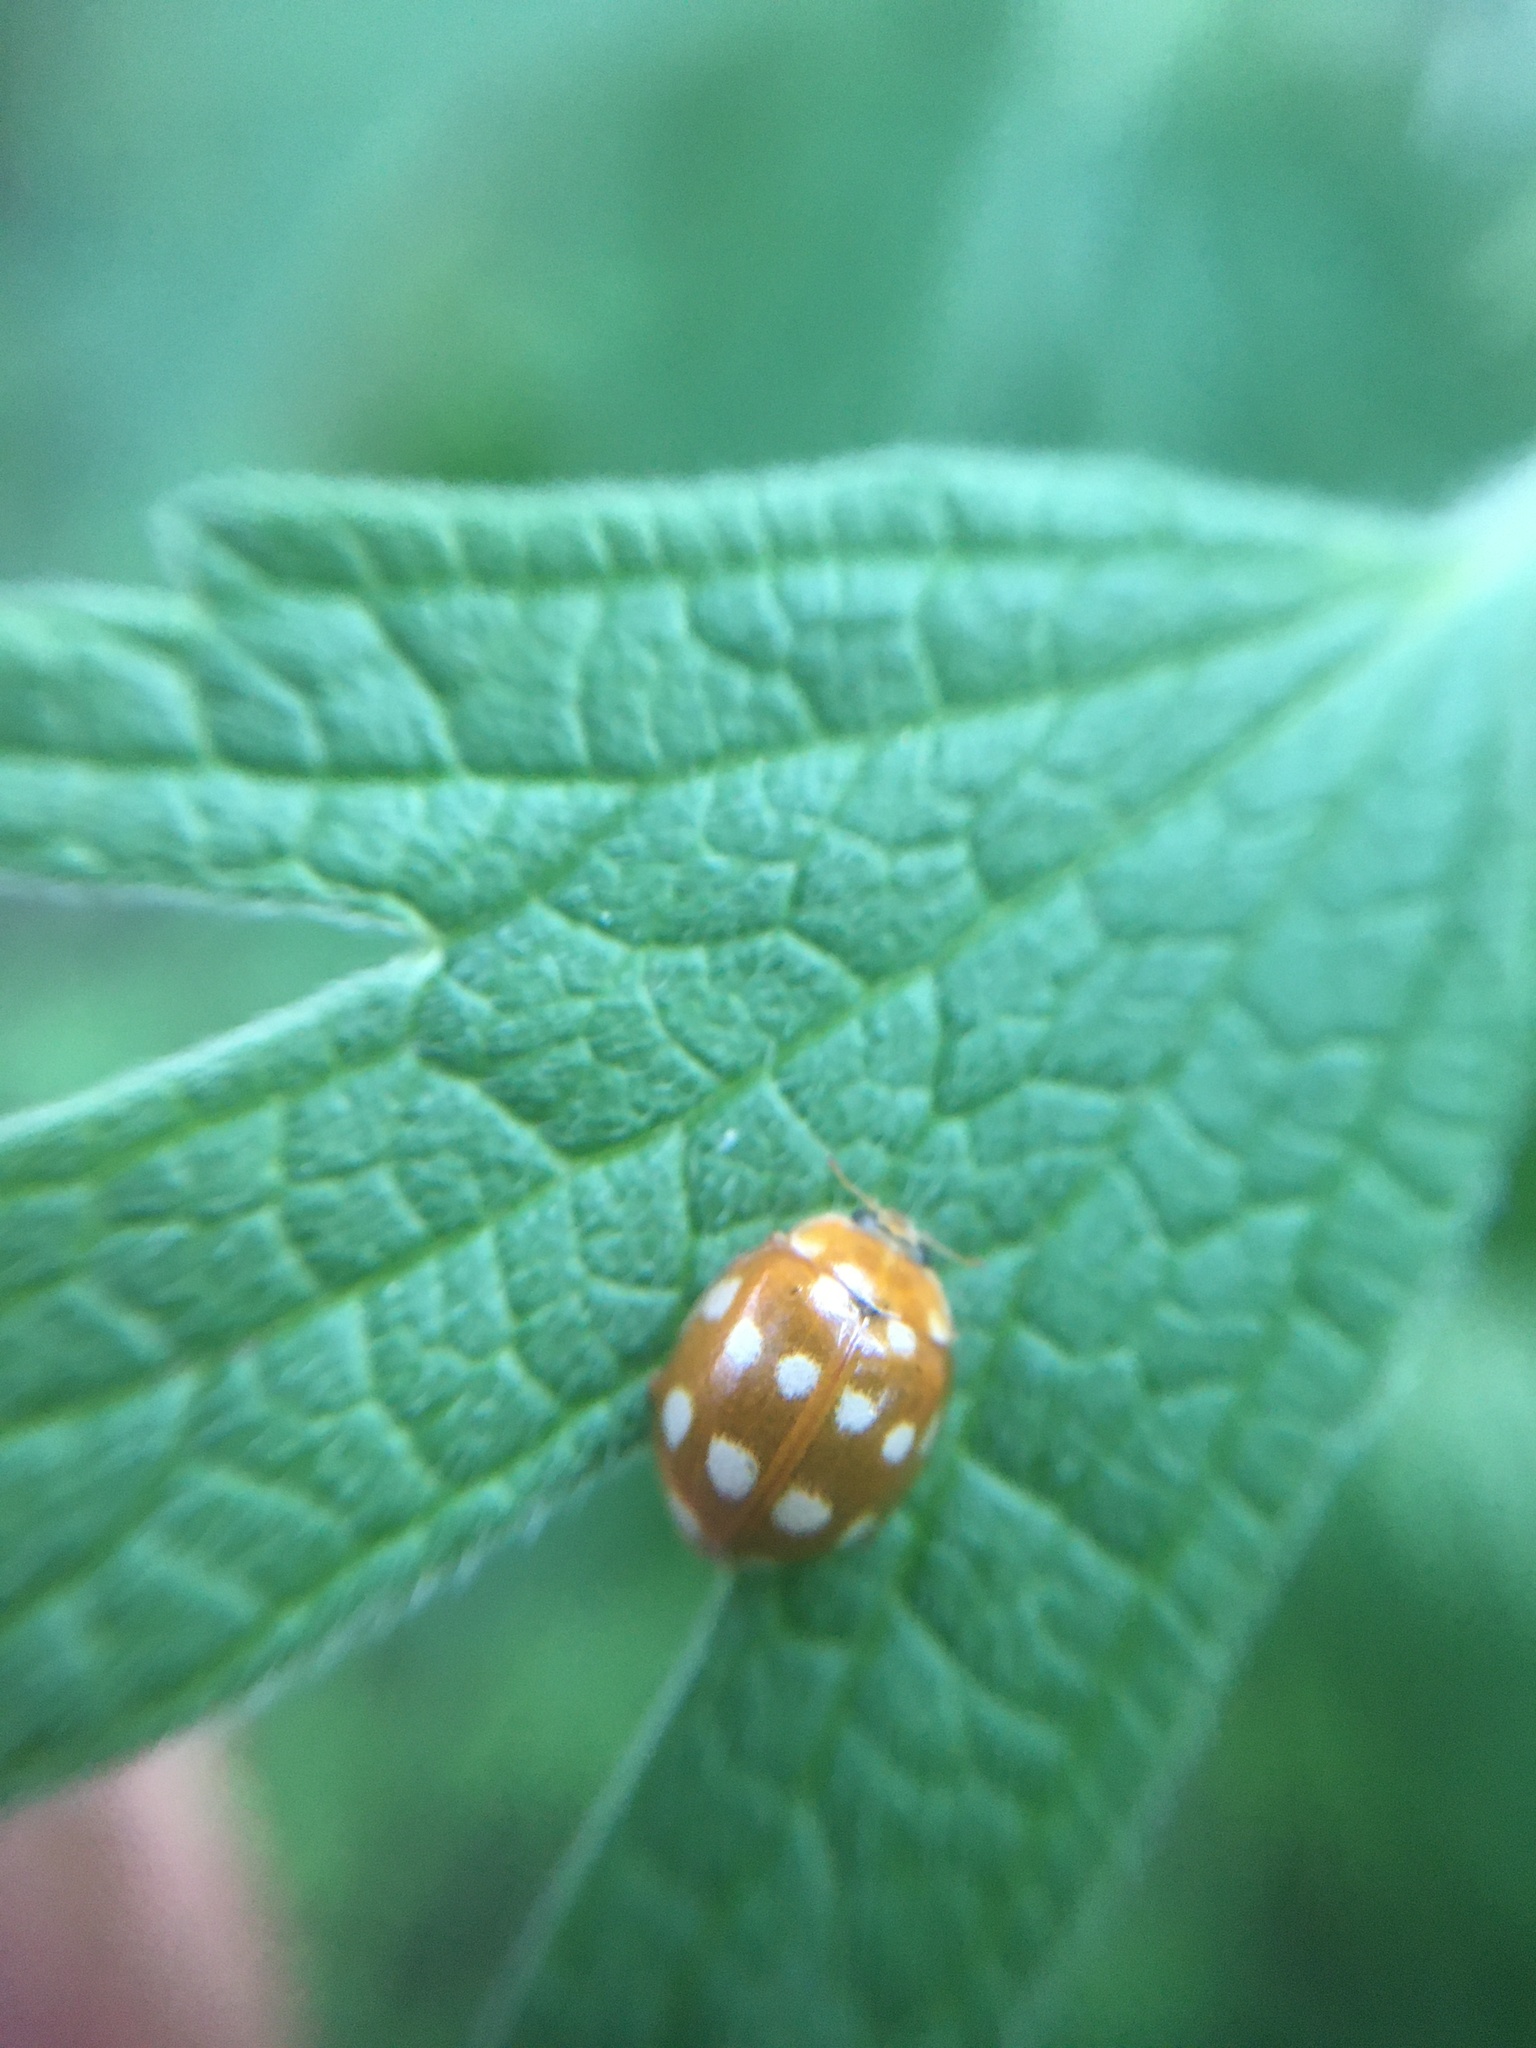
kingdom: Animalia
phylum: Arthropoda
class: Insecta
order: Coleoptera
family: Coccinellidae
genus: Calvia
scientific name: Calvia quatuordecimguttata
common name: Cream-spot ladybird
